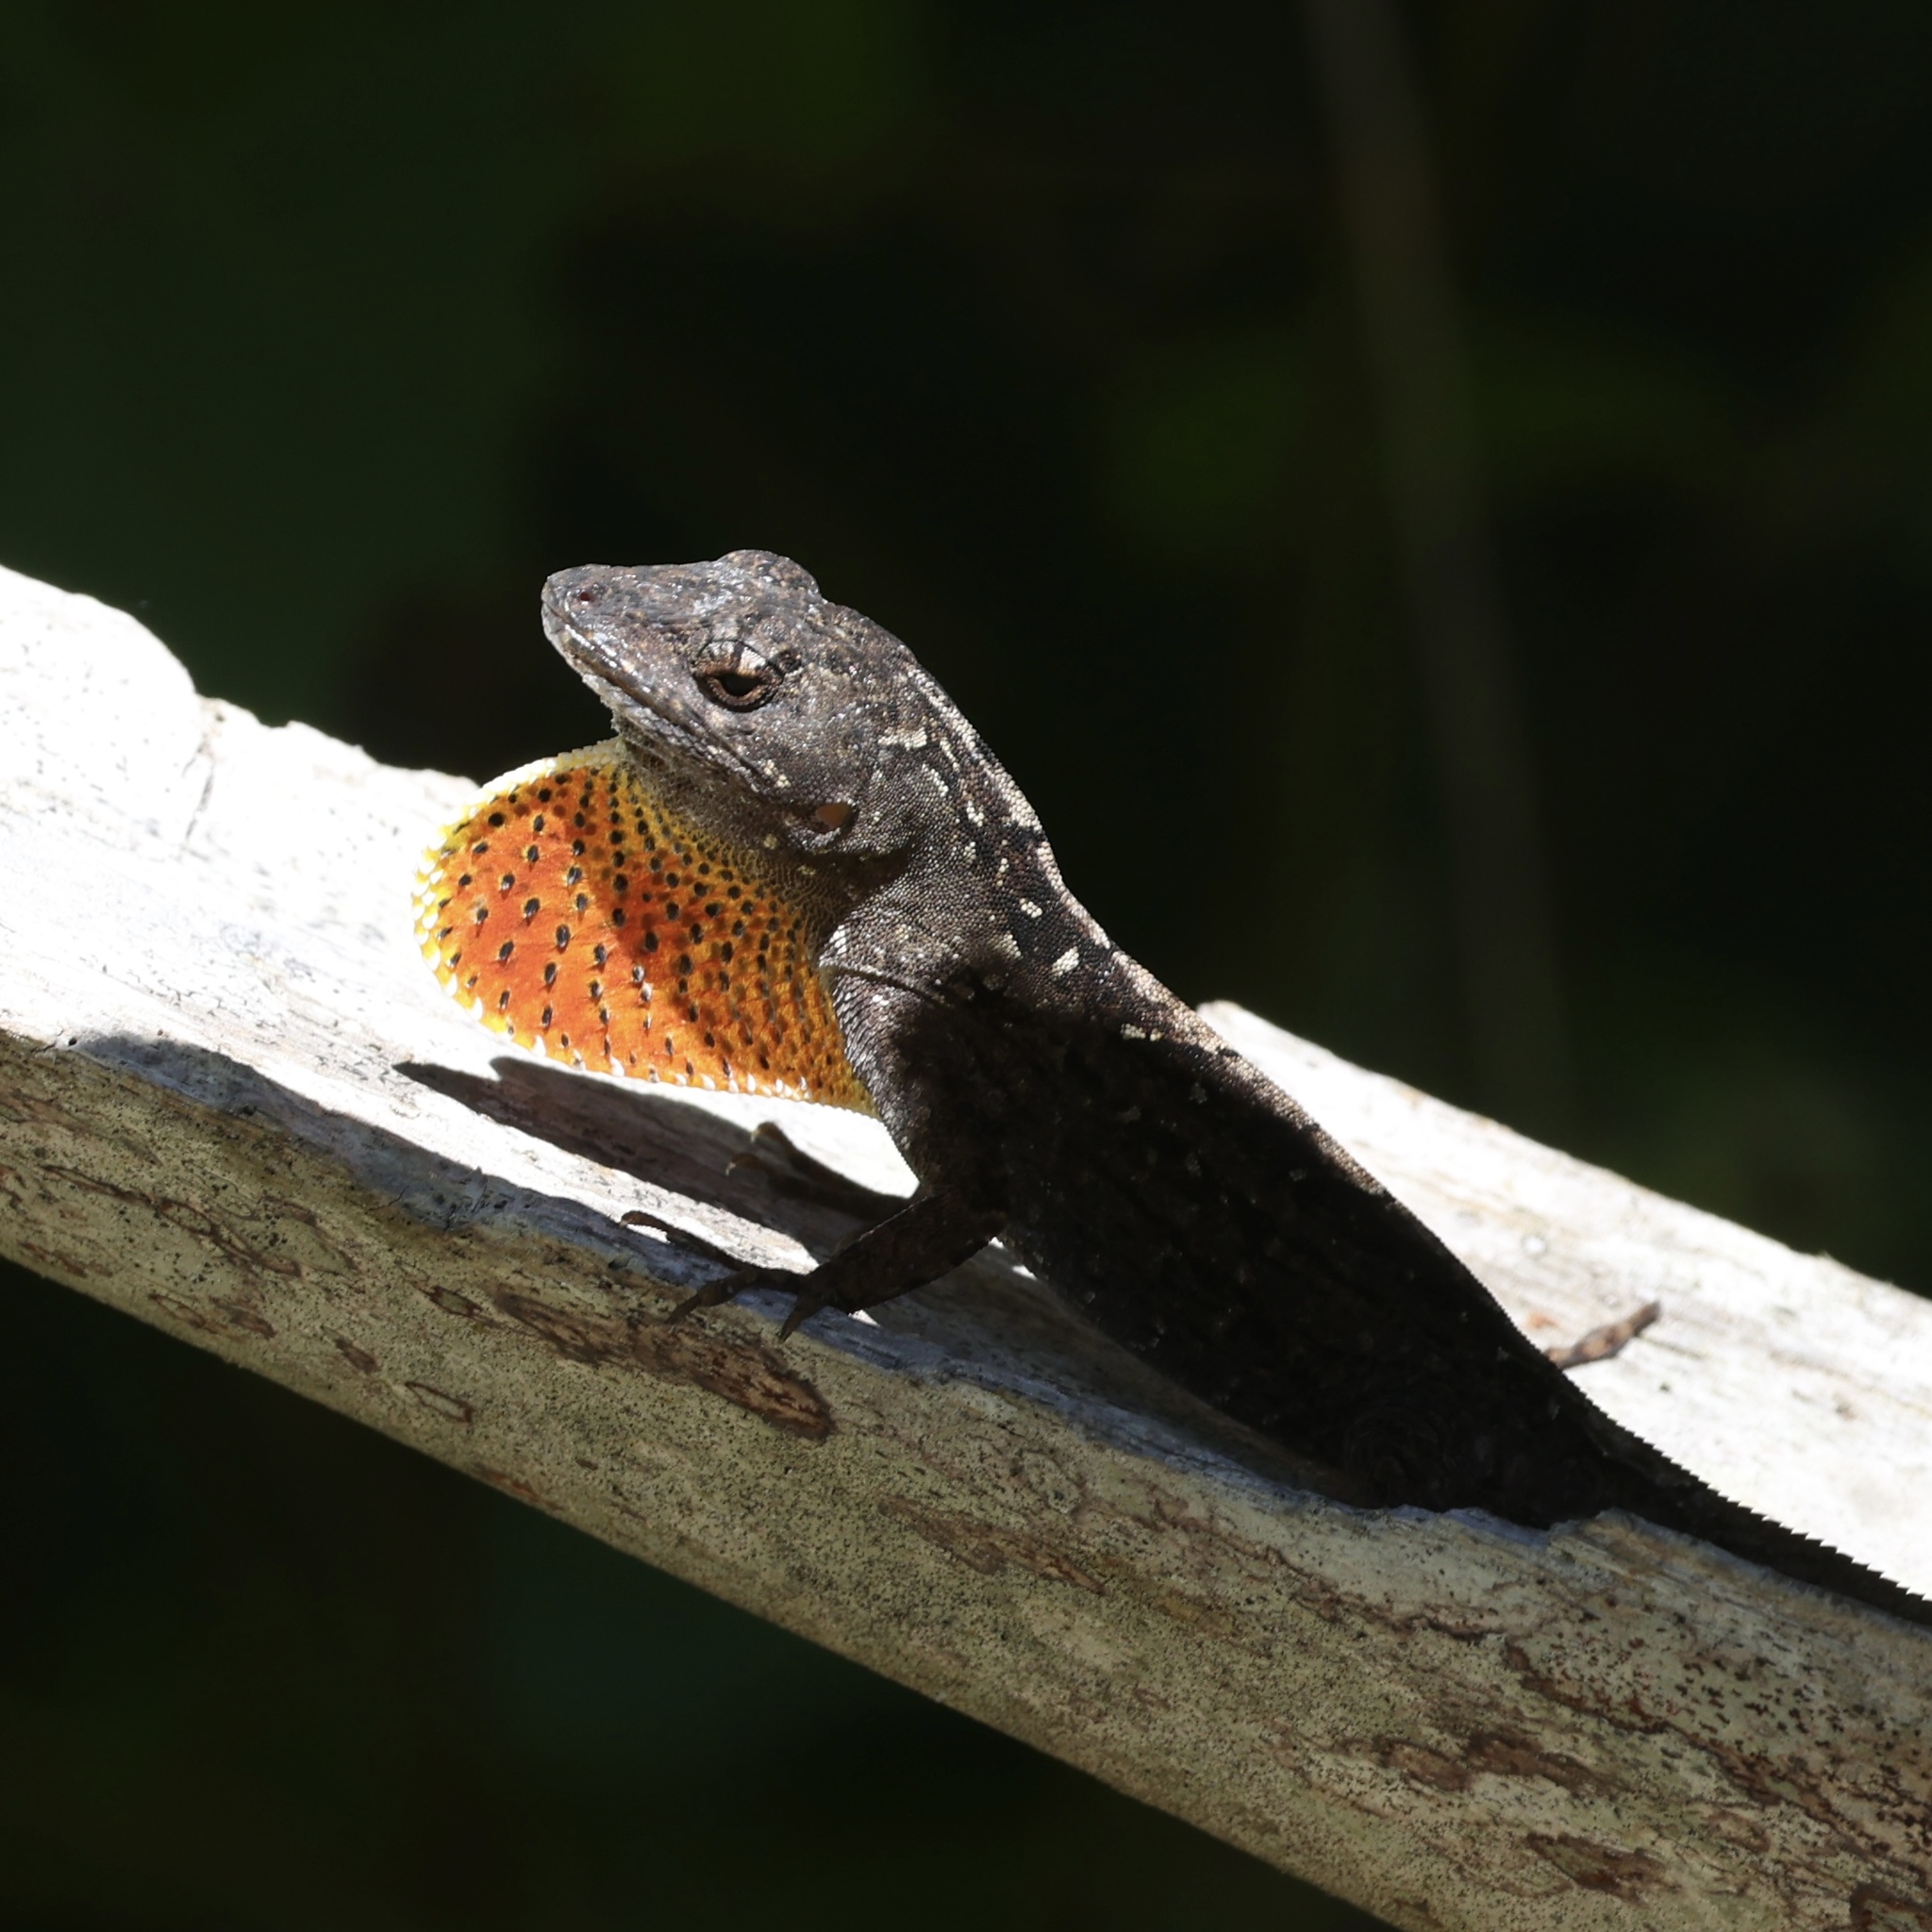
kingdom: Animalia
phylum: Chordata
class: Squamata
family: Dactyloidae
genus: Anolis
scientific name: Anolis sagrei
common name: Brown anole
